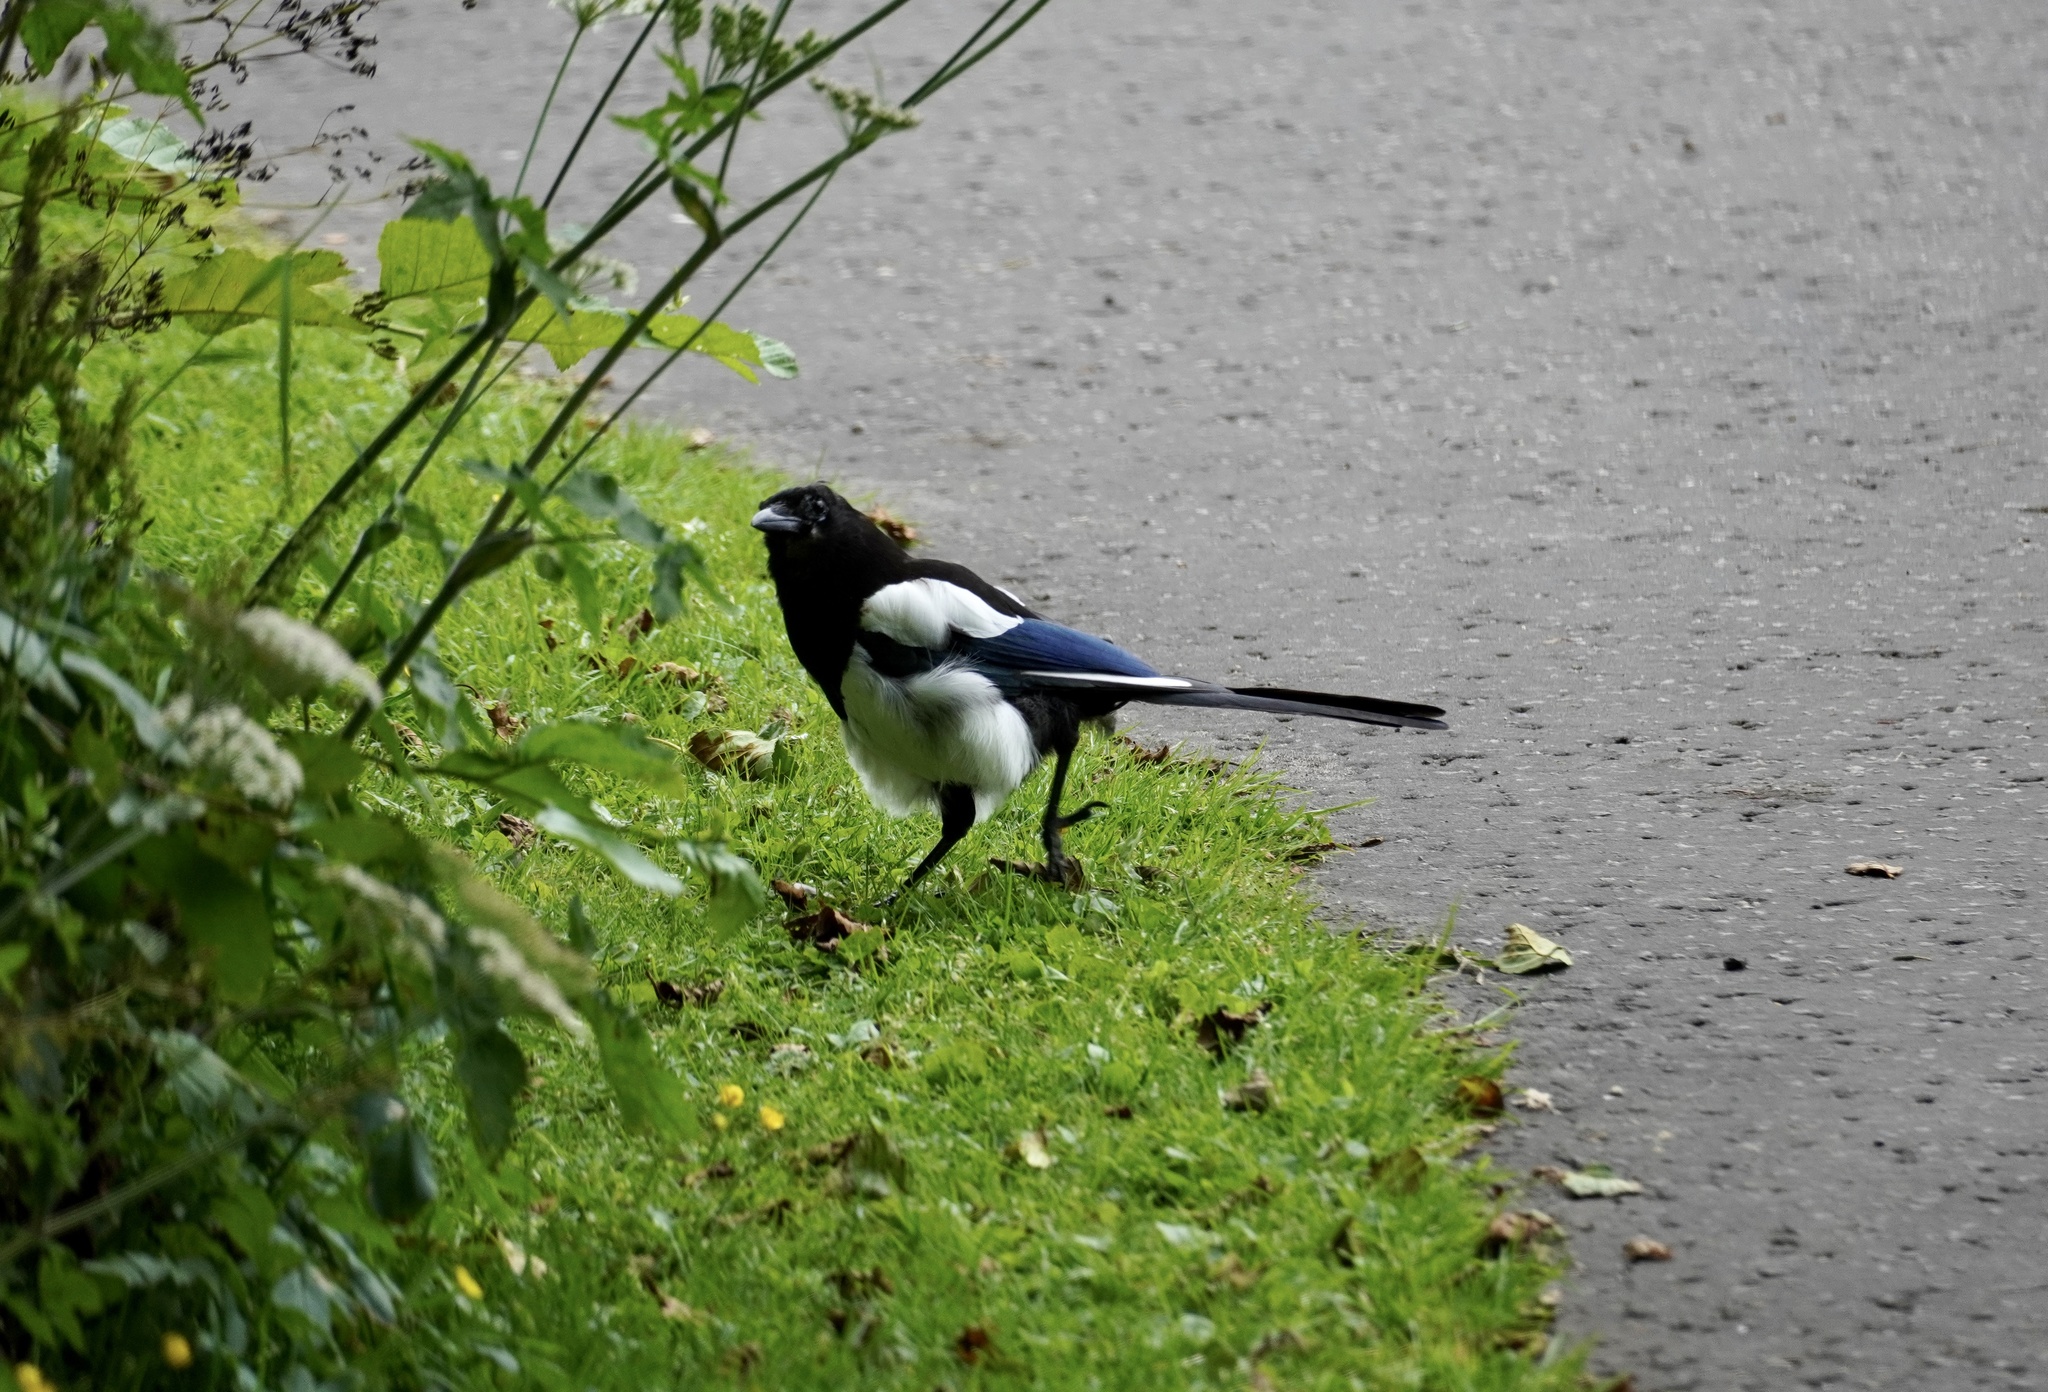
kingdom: Animalia
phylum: Chordata
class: Aves
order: Passeriformes
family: Corvidae
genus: Pica
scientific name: Pica pica
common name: Eurasian magpie
